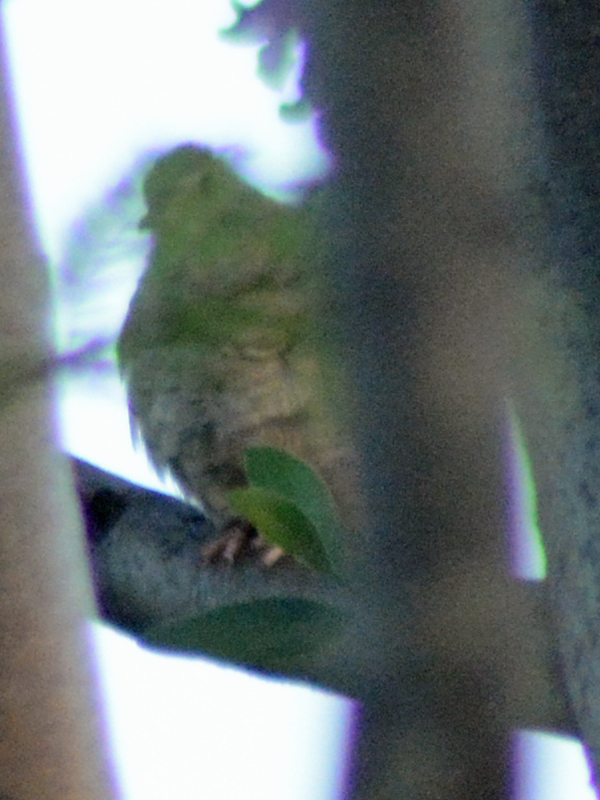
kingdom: Animalia
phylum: Chordata
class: Aves
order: Columbiformes
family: Columbidae
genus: Columbina
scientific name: Columbina inca
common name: Inca dove
